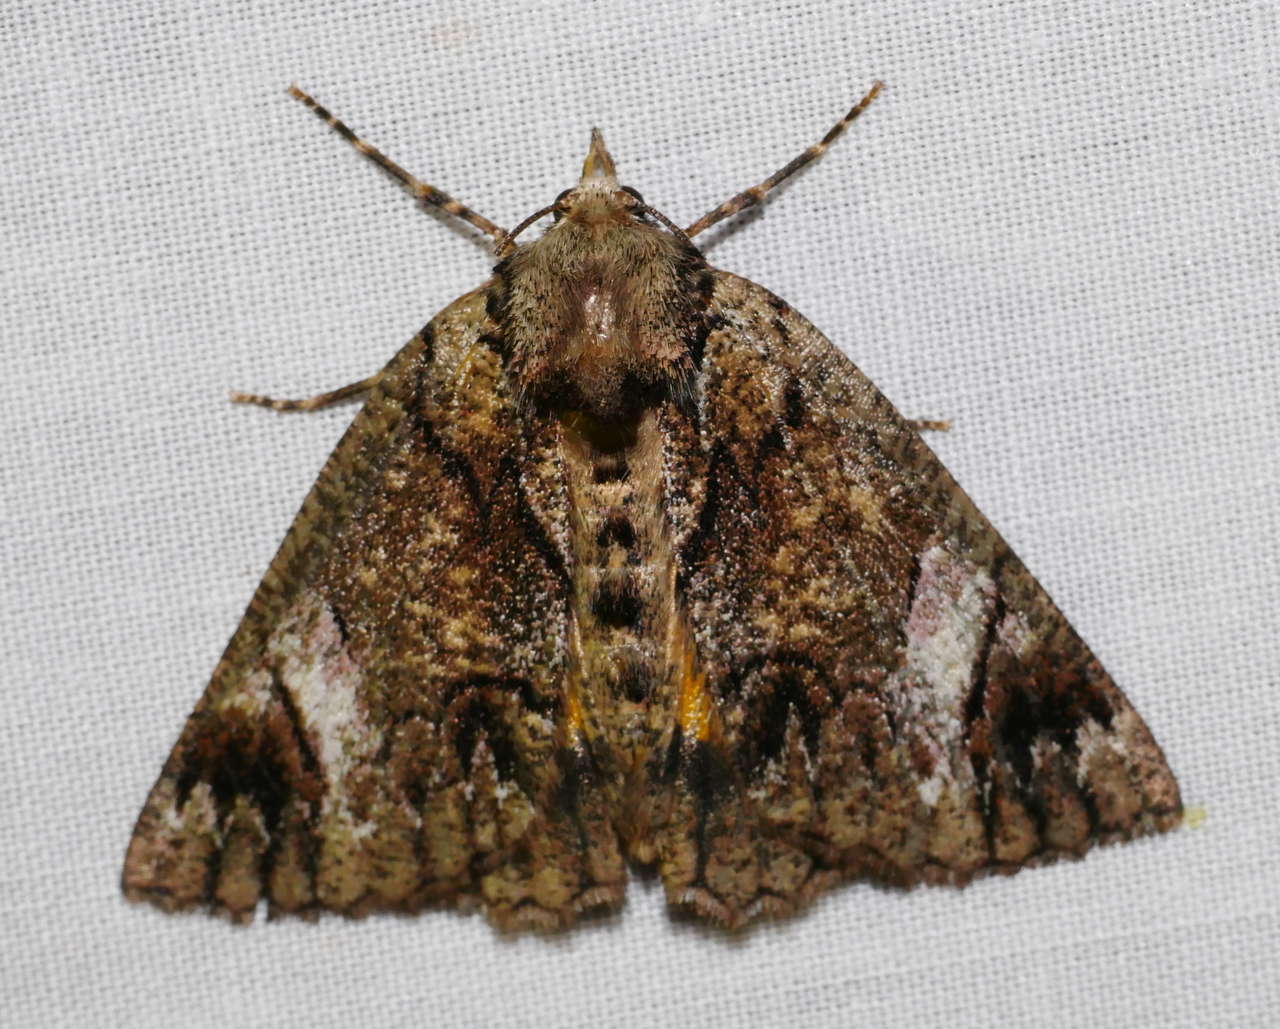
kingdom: Animalia
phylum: Arthropoda
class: Insecta
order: Lepidoptera
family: Geometridae
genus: Heliomystis
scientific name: Heliomystis electrica
